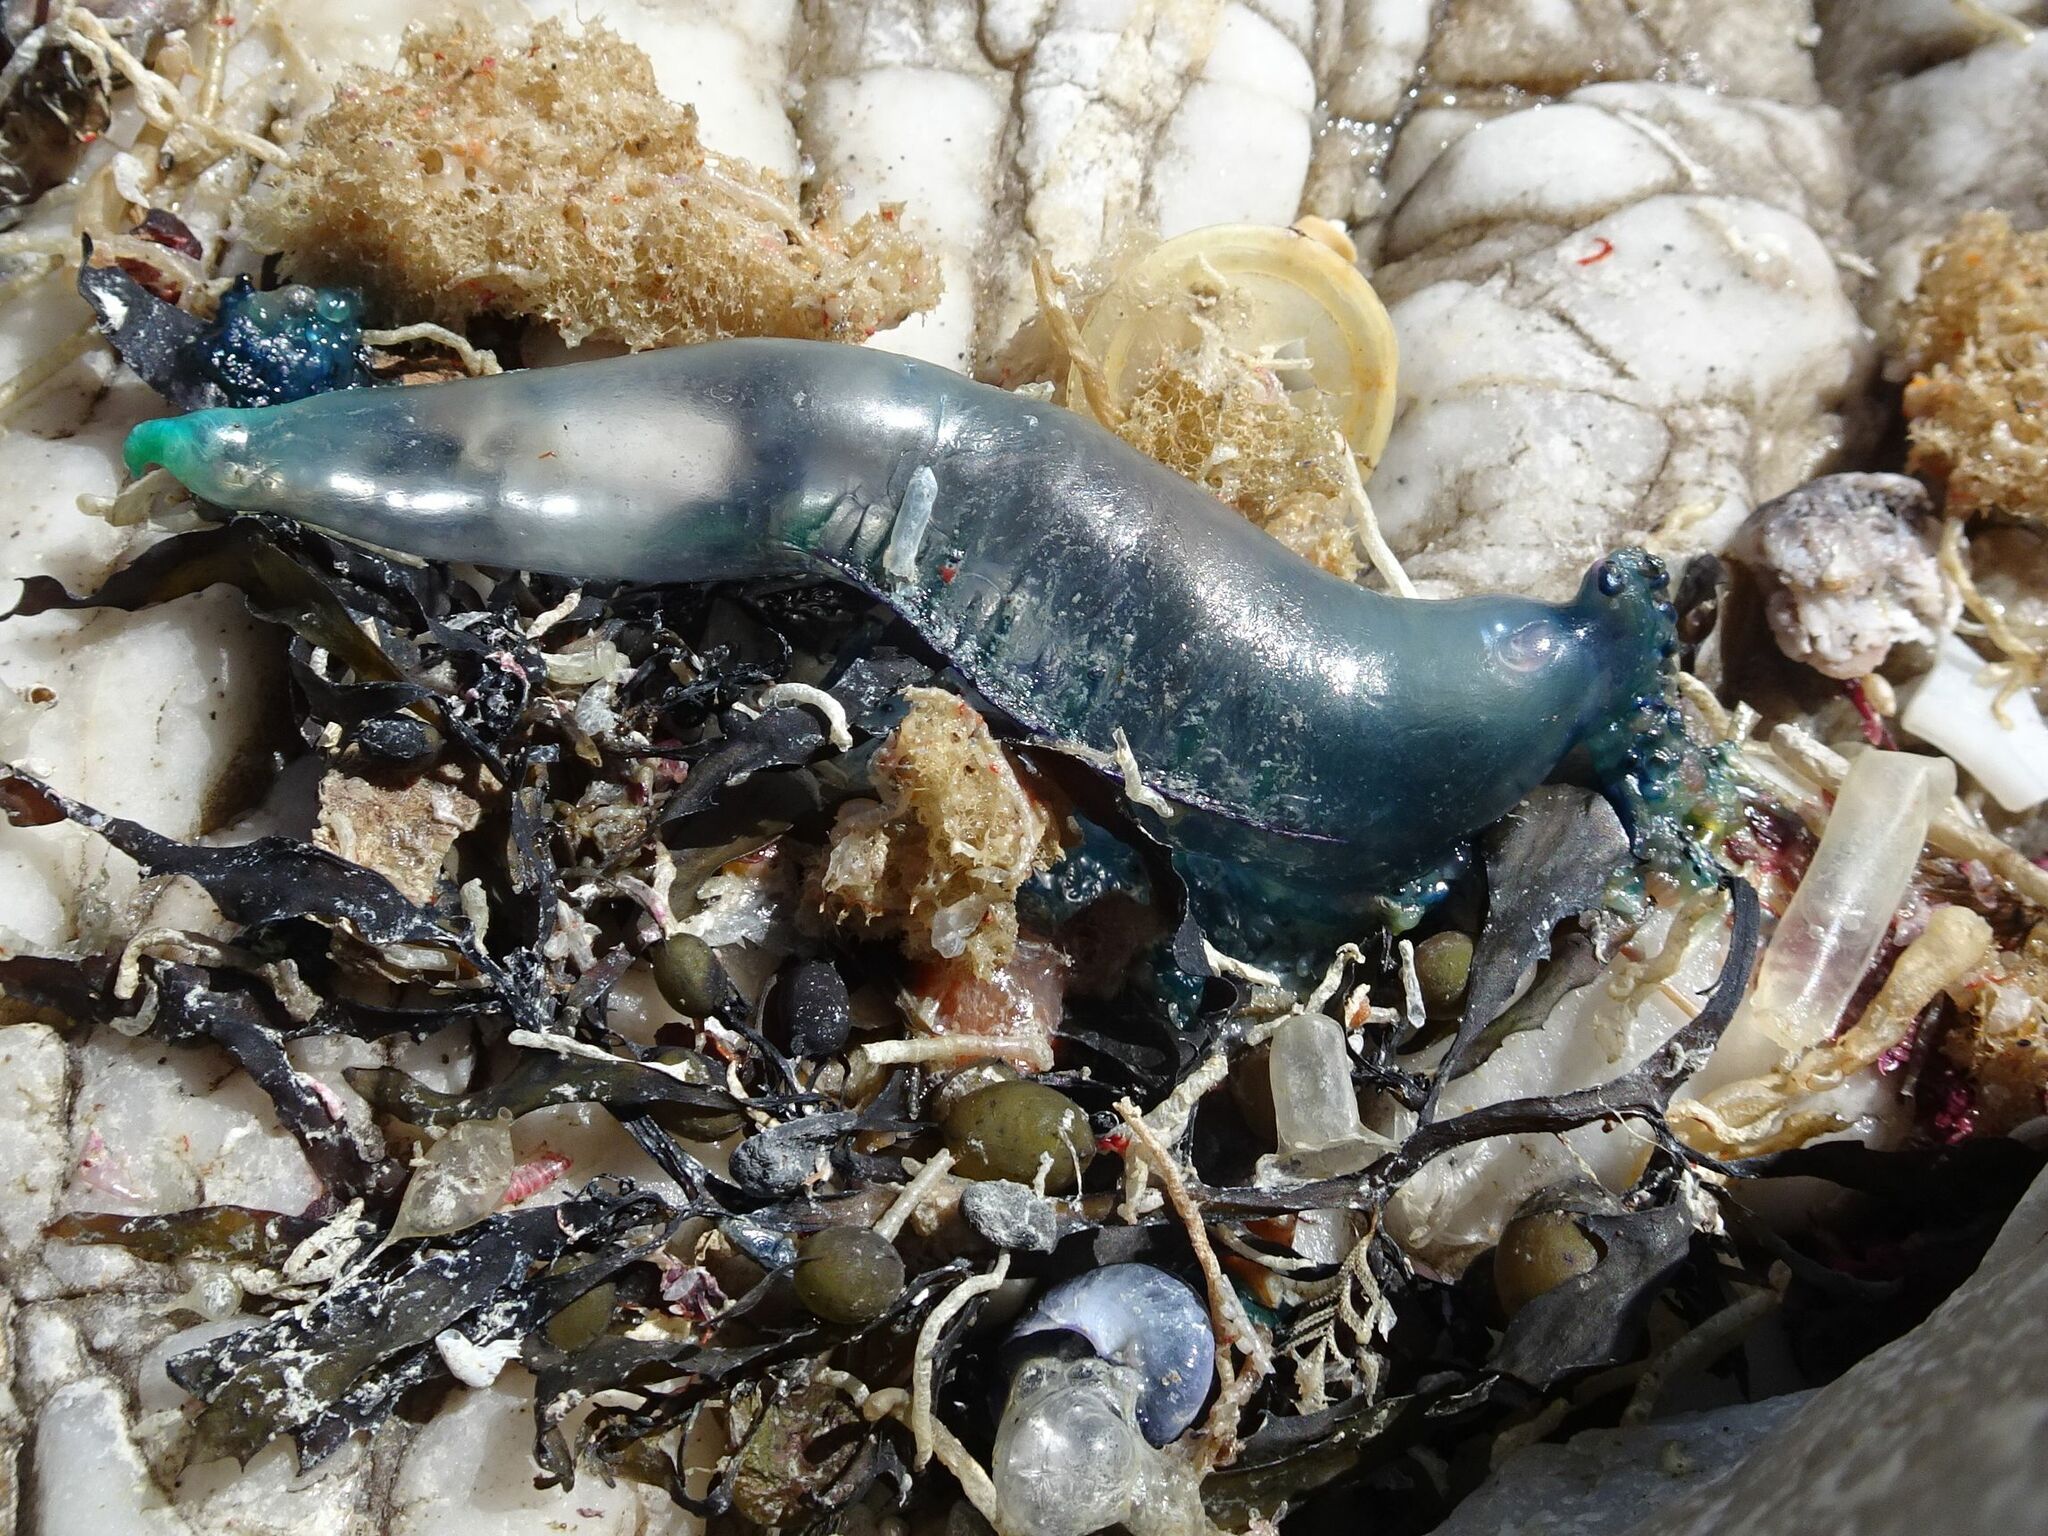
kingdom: Animalia
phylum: Cnidaria
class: Hydrozoa
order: Siphonophorae
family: Physaliidae
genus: Physalia
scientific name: Physalia physalis
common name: Portuguese man-of-war
